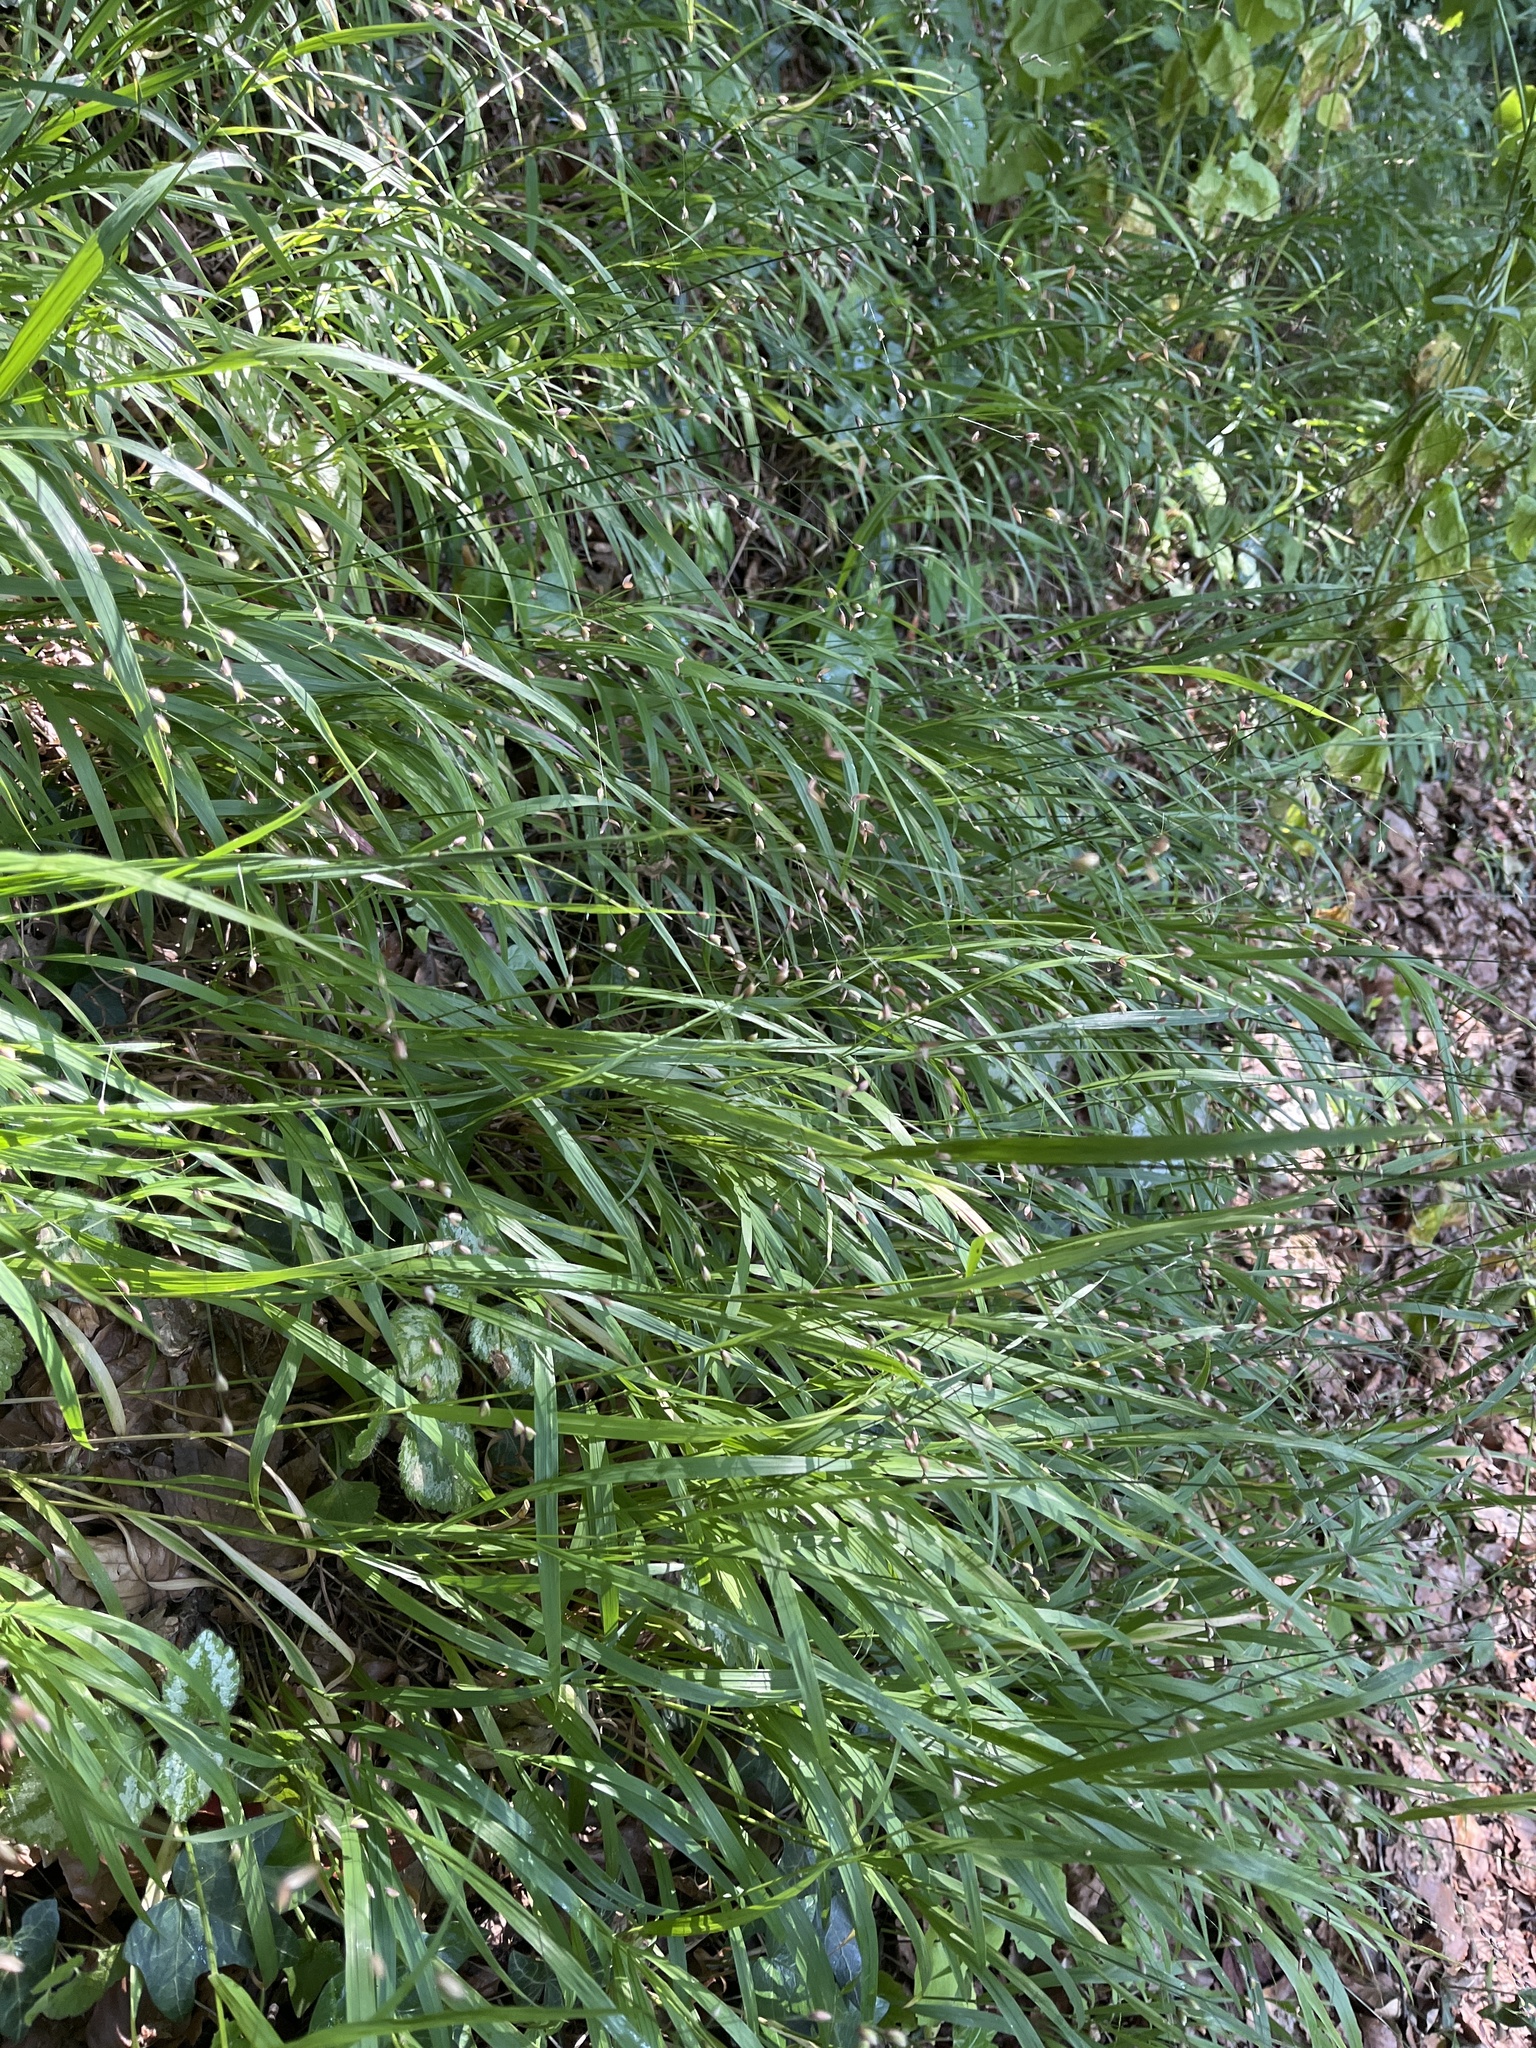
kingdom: Plantae
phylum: Tracheophyta
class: Liliopsida
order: Poales
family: Poaceae
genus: Melica
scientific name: Melica uniflora
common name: Wood melick
